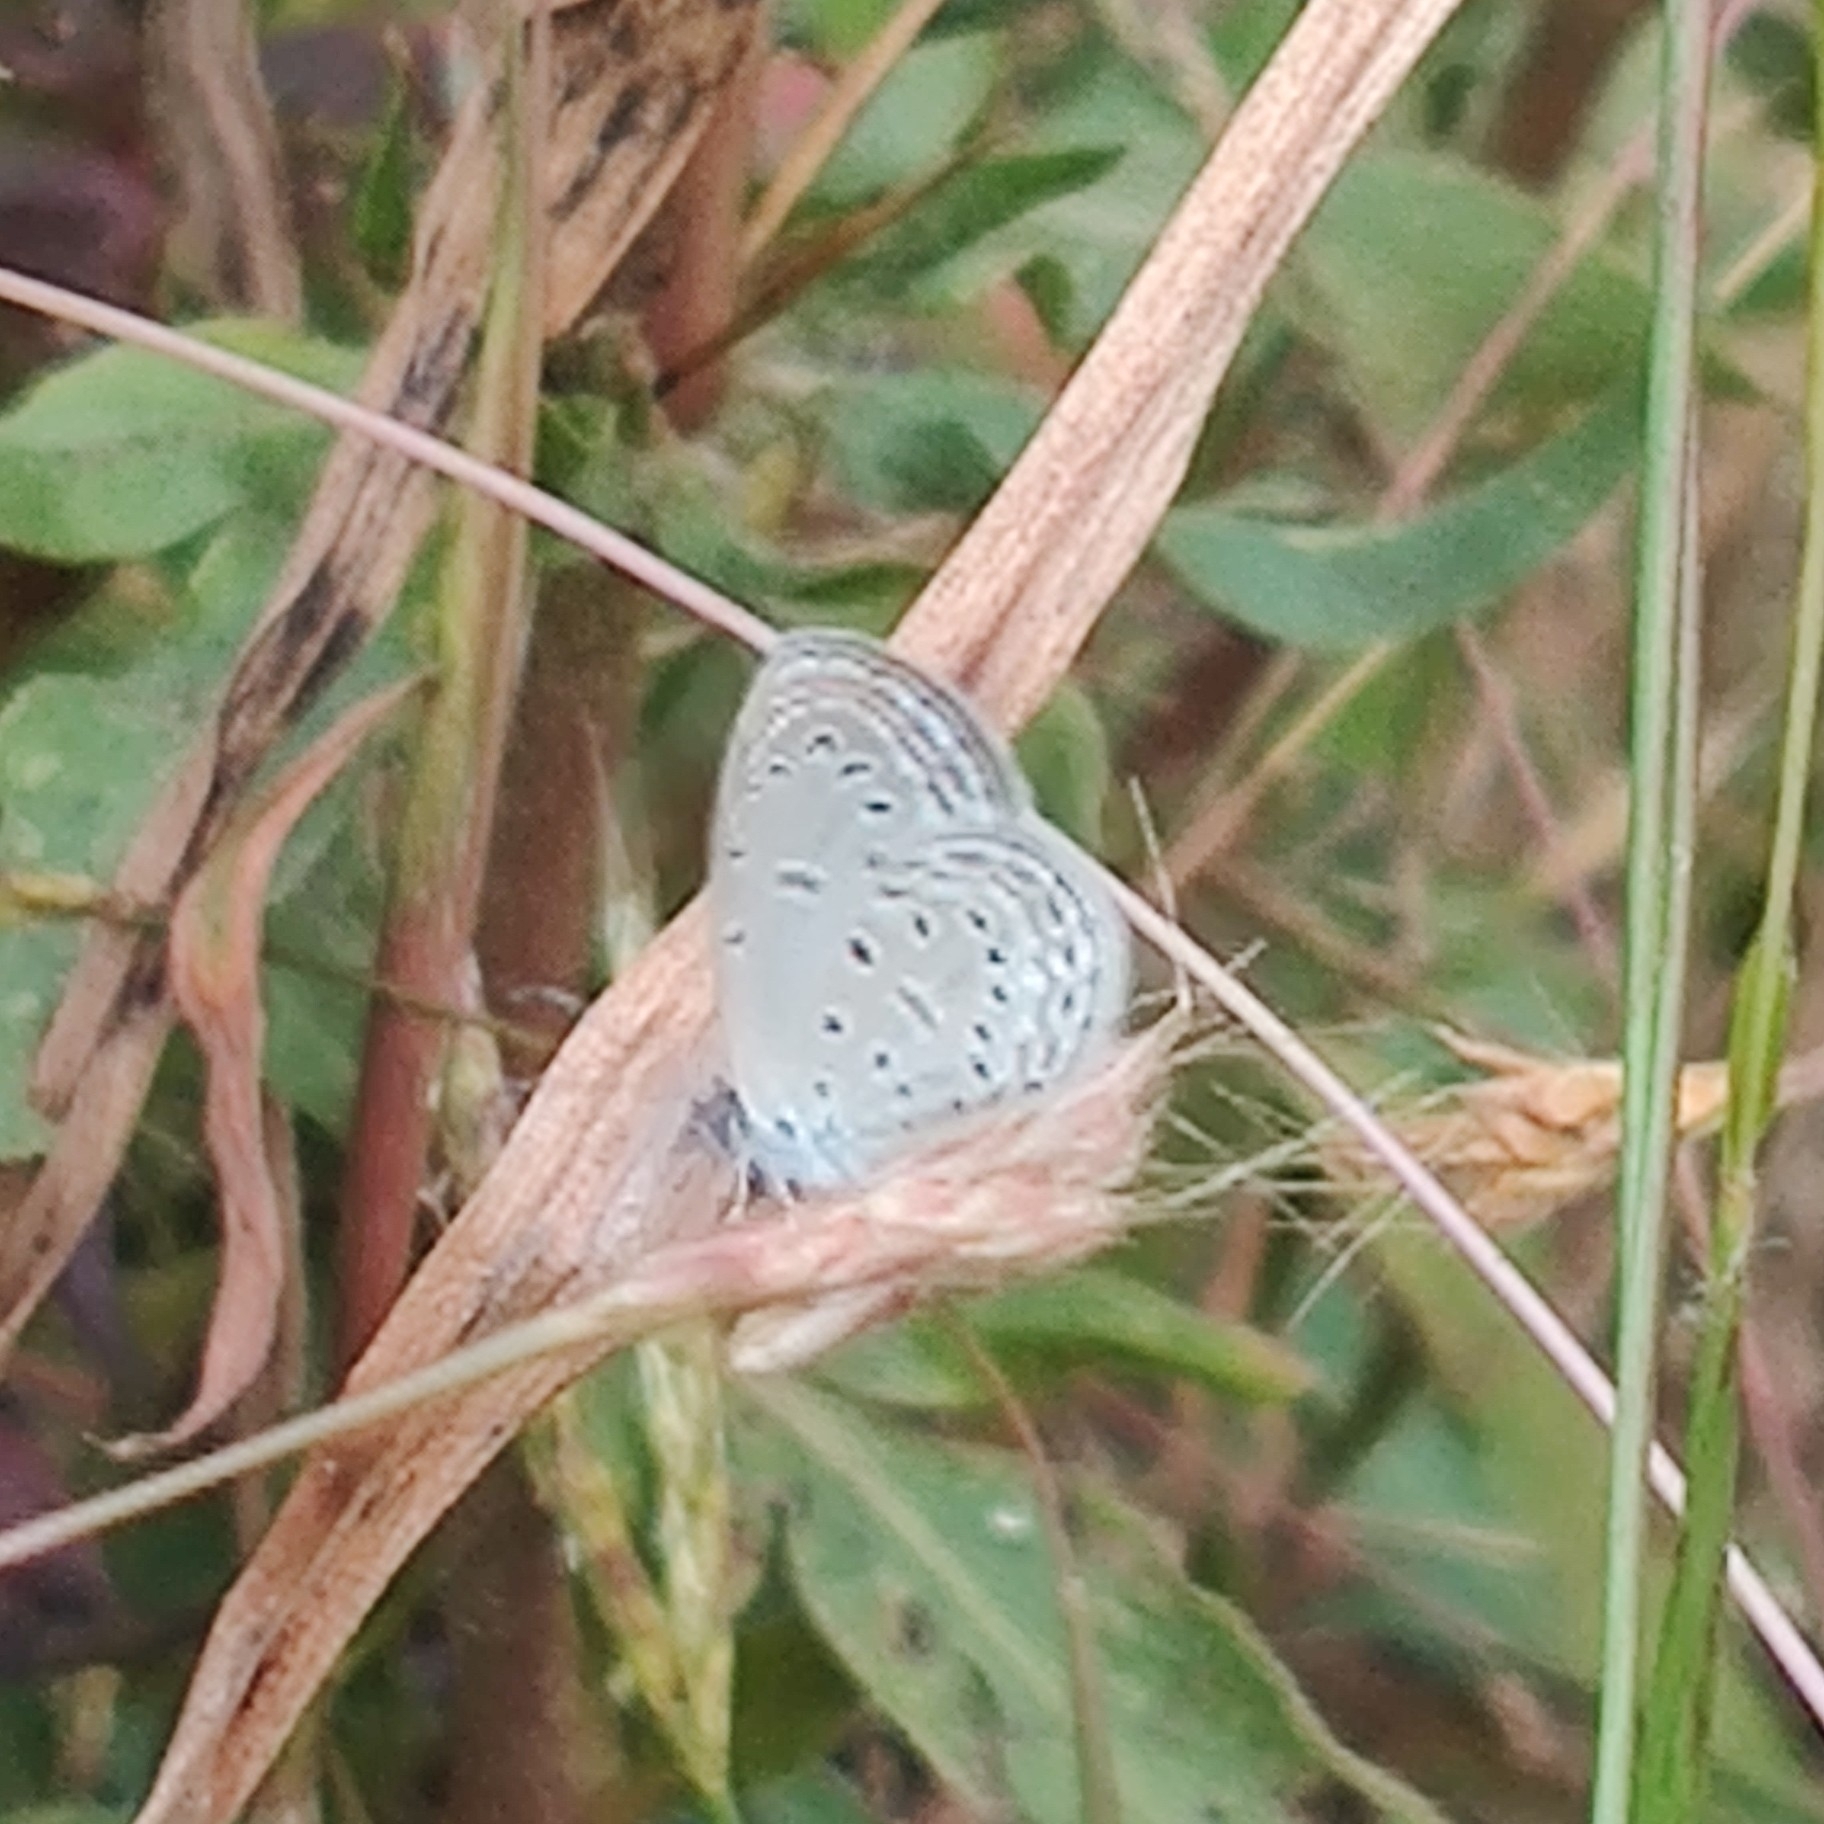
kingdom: Animalia
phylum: Arthropoda
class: Insecta
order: Lepidoptera
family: Lycaenidae
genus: Zizula
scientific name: Zizula hylax
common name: Gaika blue
